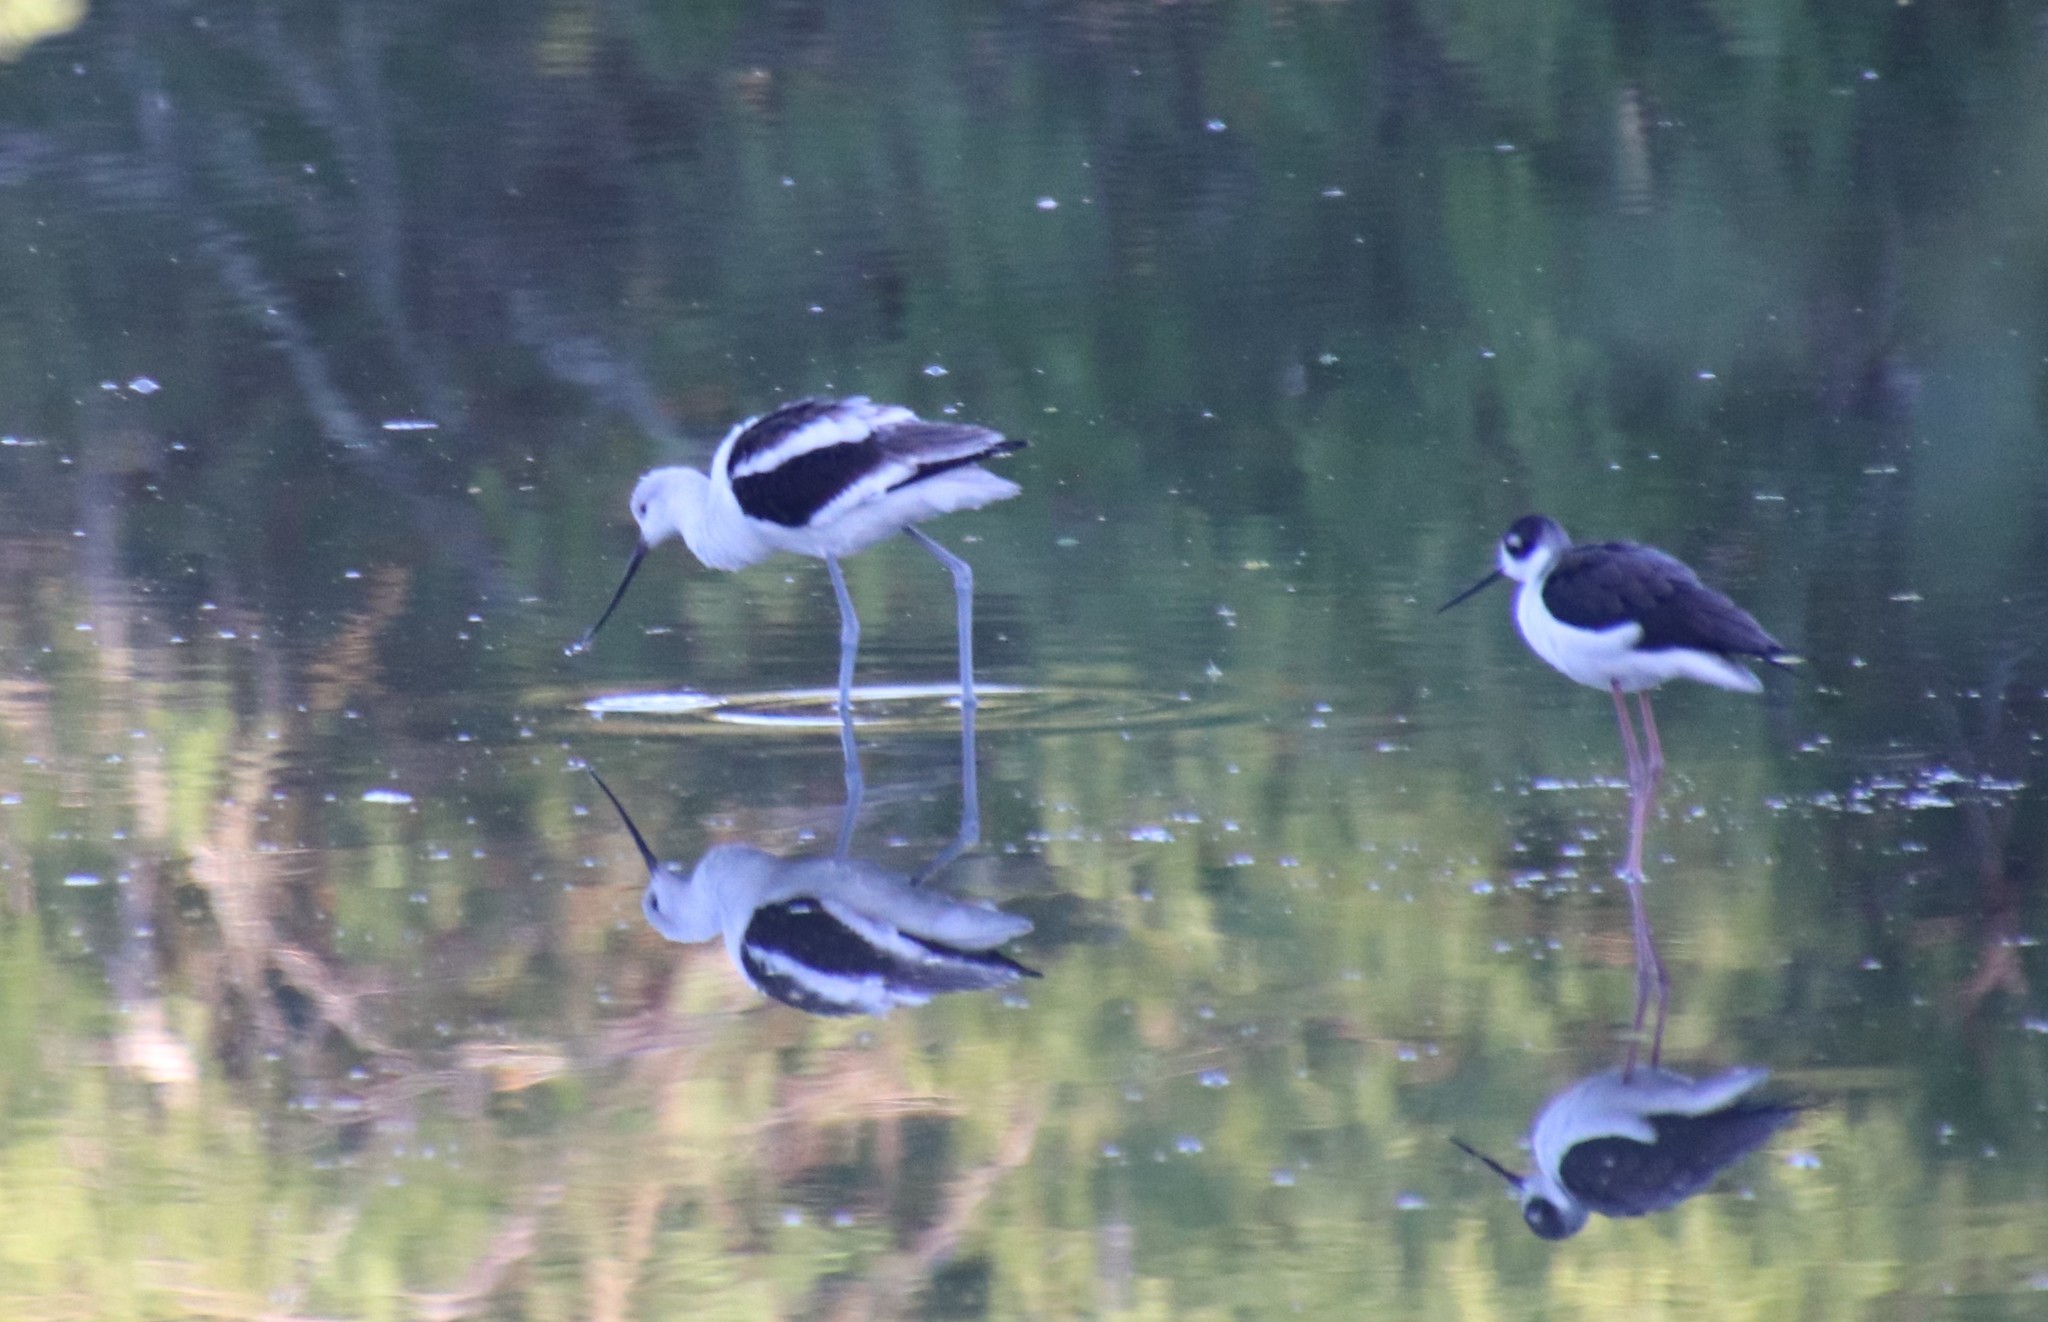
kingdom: Animalia
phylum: Chordata
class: Aves
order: Charadriiformes
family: Recurvirostridae
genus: Recurvirostra
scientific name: Recurvirostra americana
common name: American avocet
